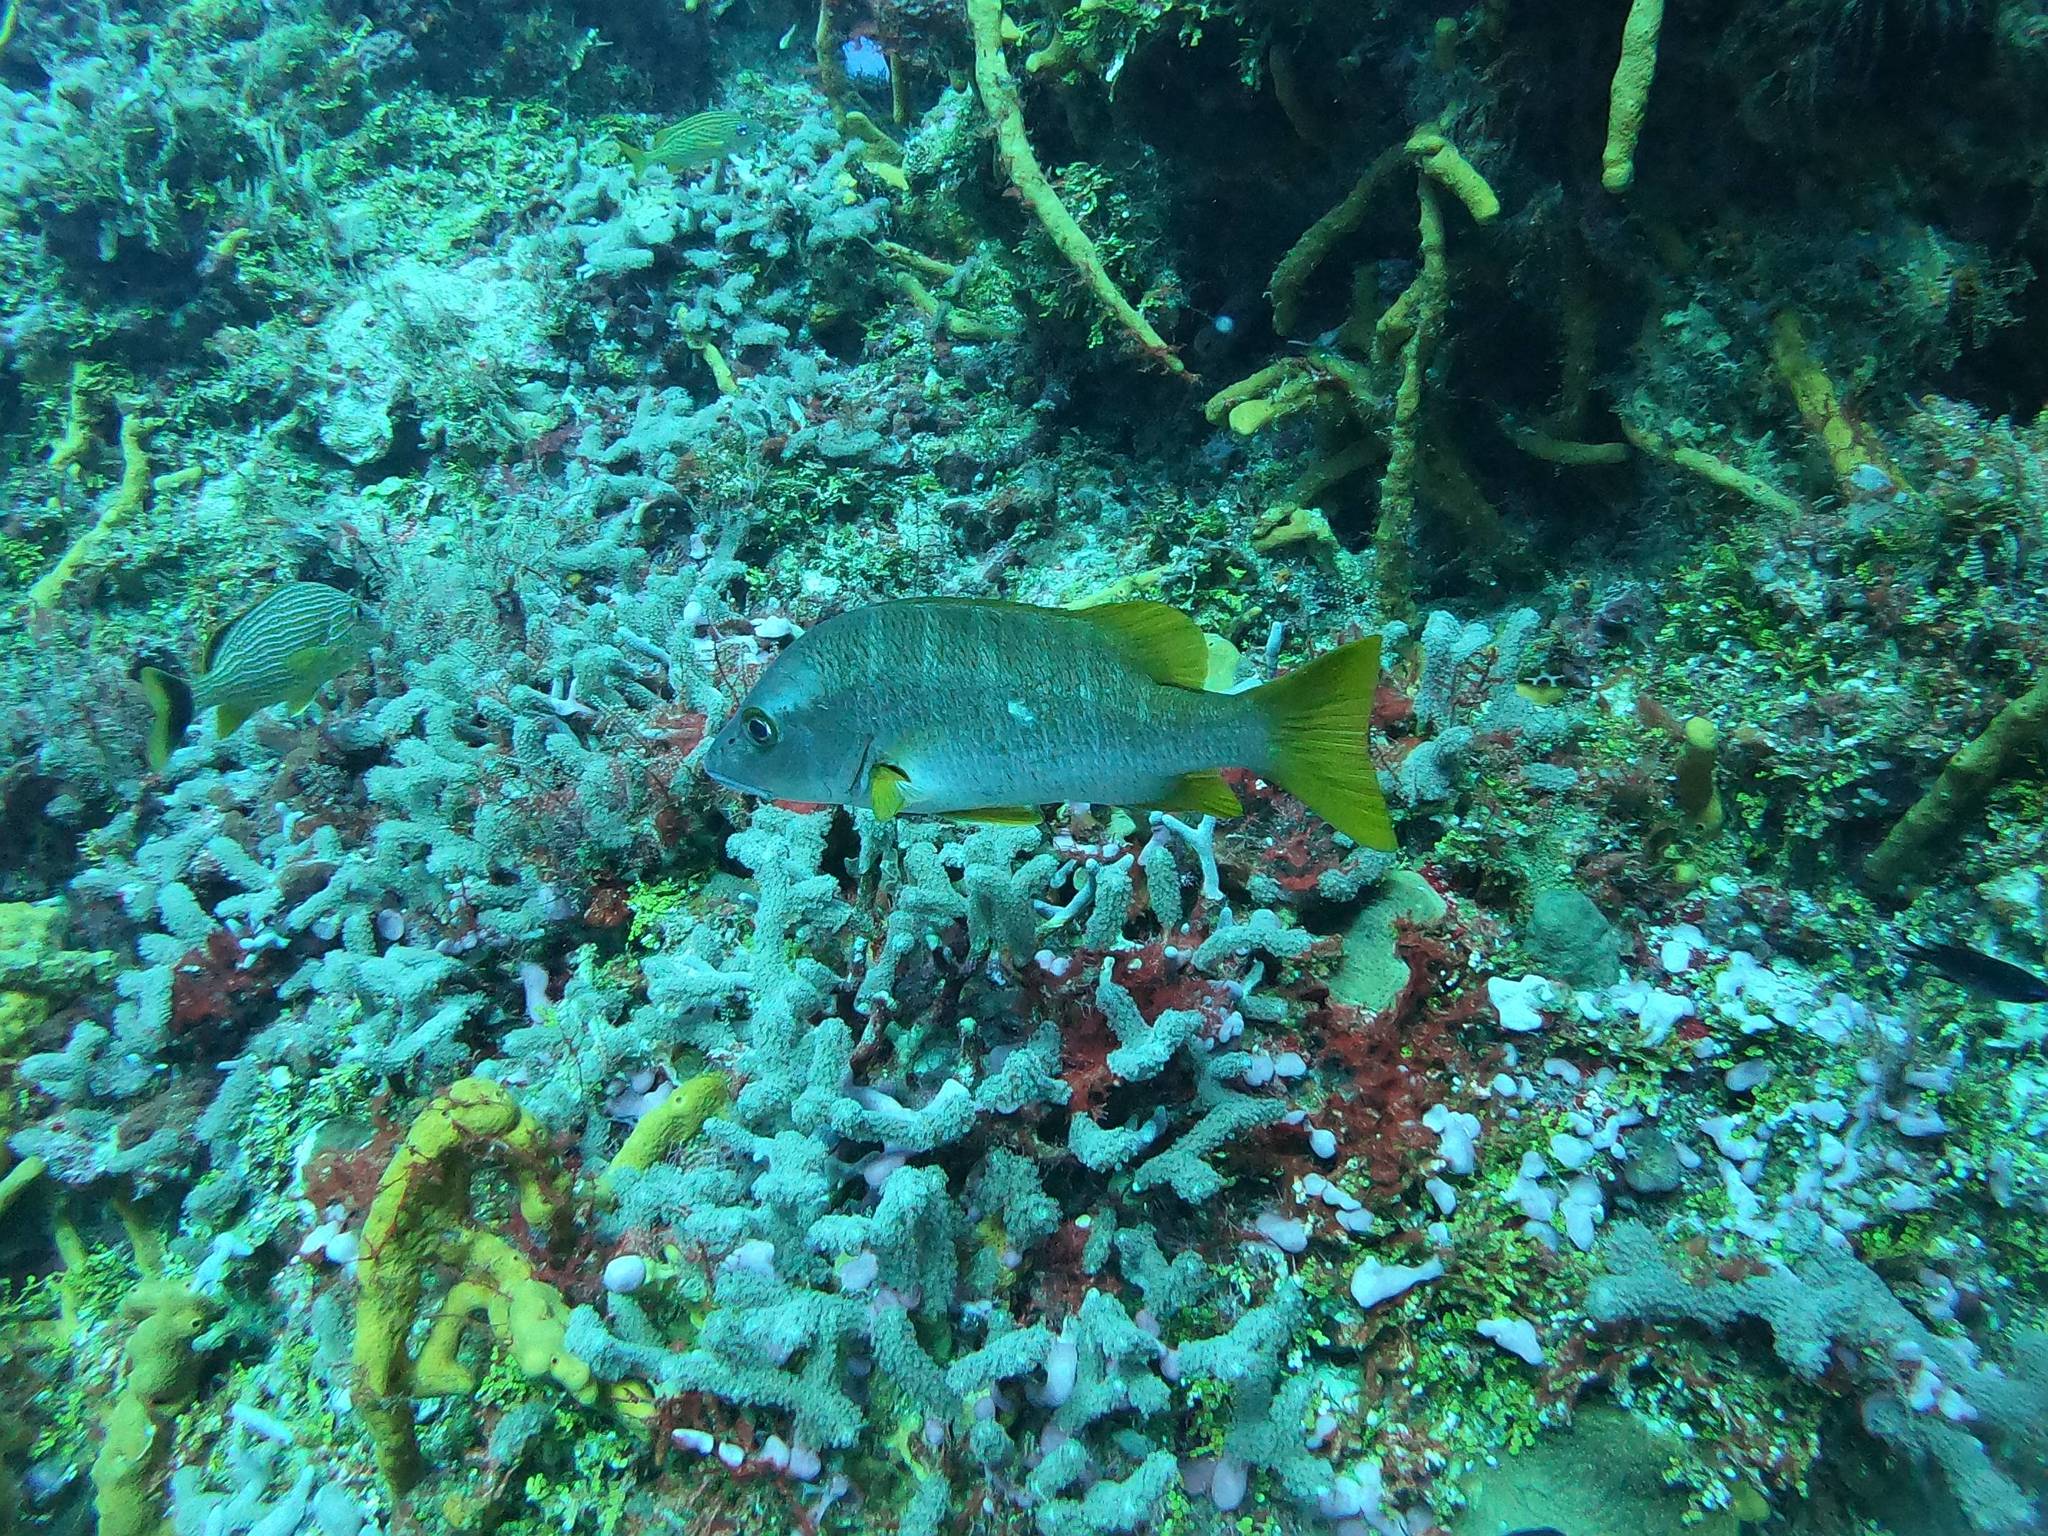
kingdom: Animalia
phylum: Chordata
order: Perciformes
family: Lutjanidae
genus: Lutjanus
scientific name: Lutjanus apodus
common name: Schoolmaster
